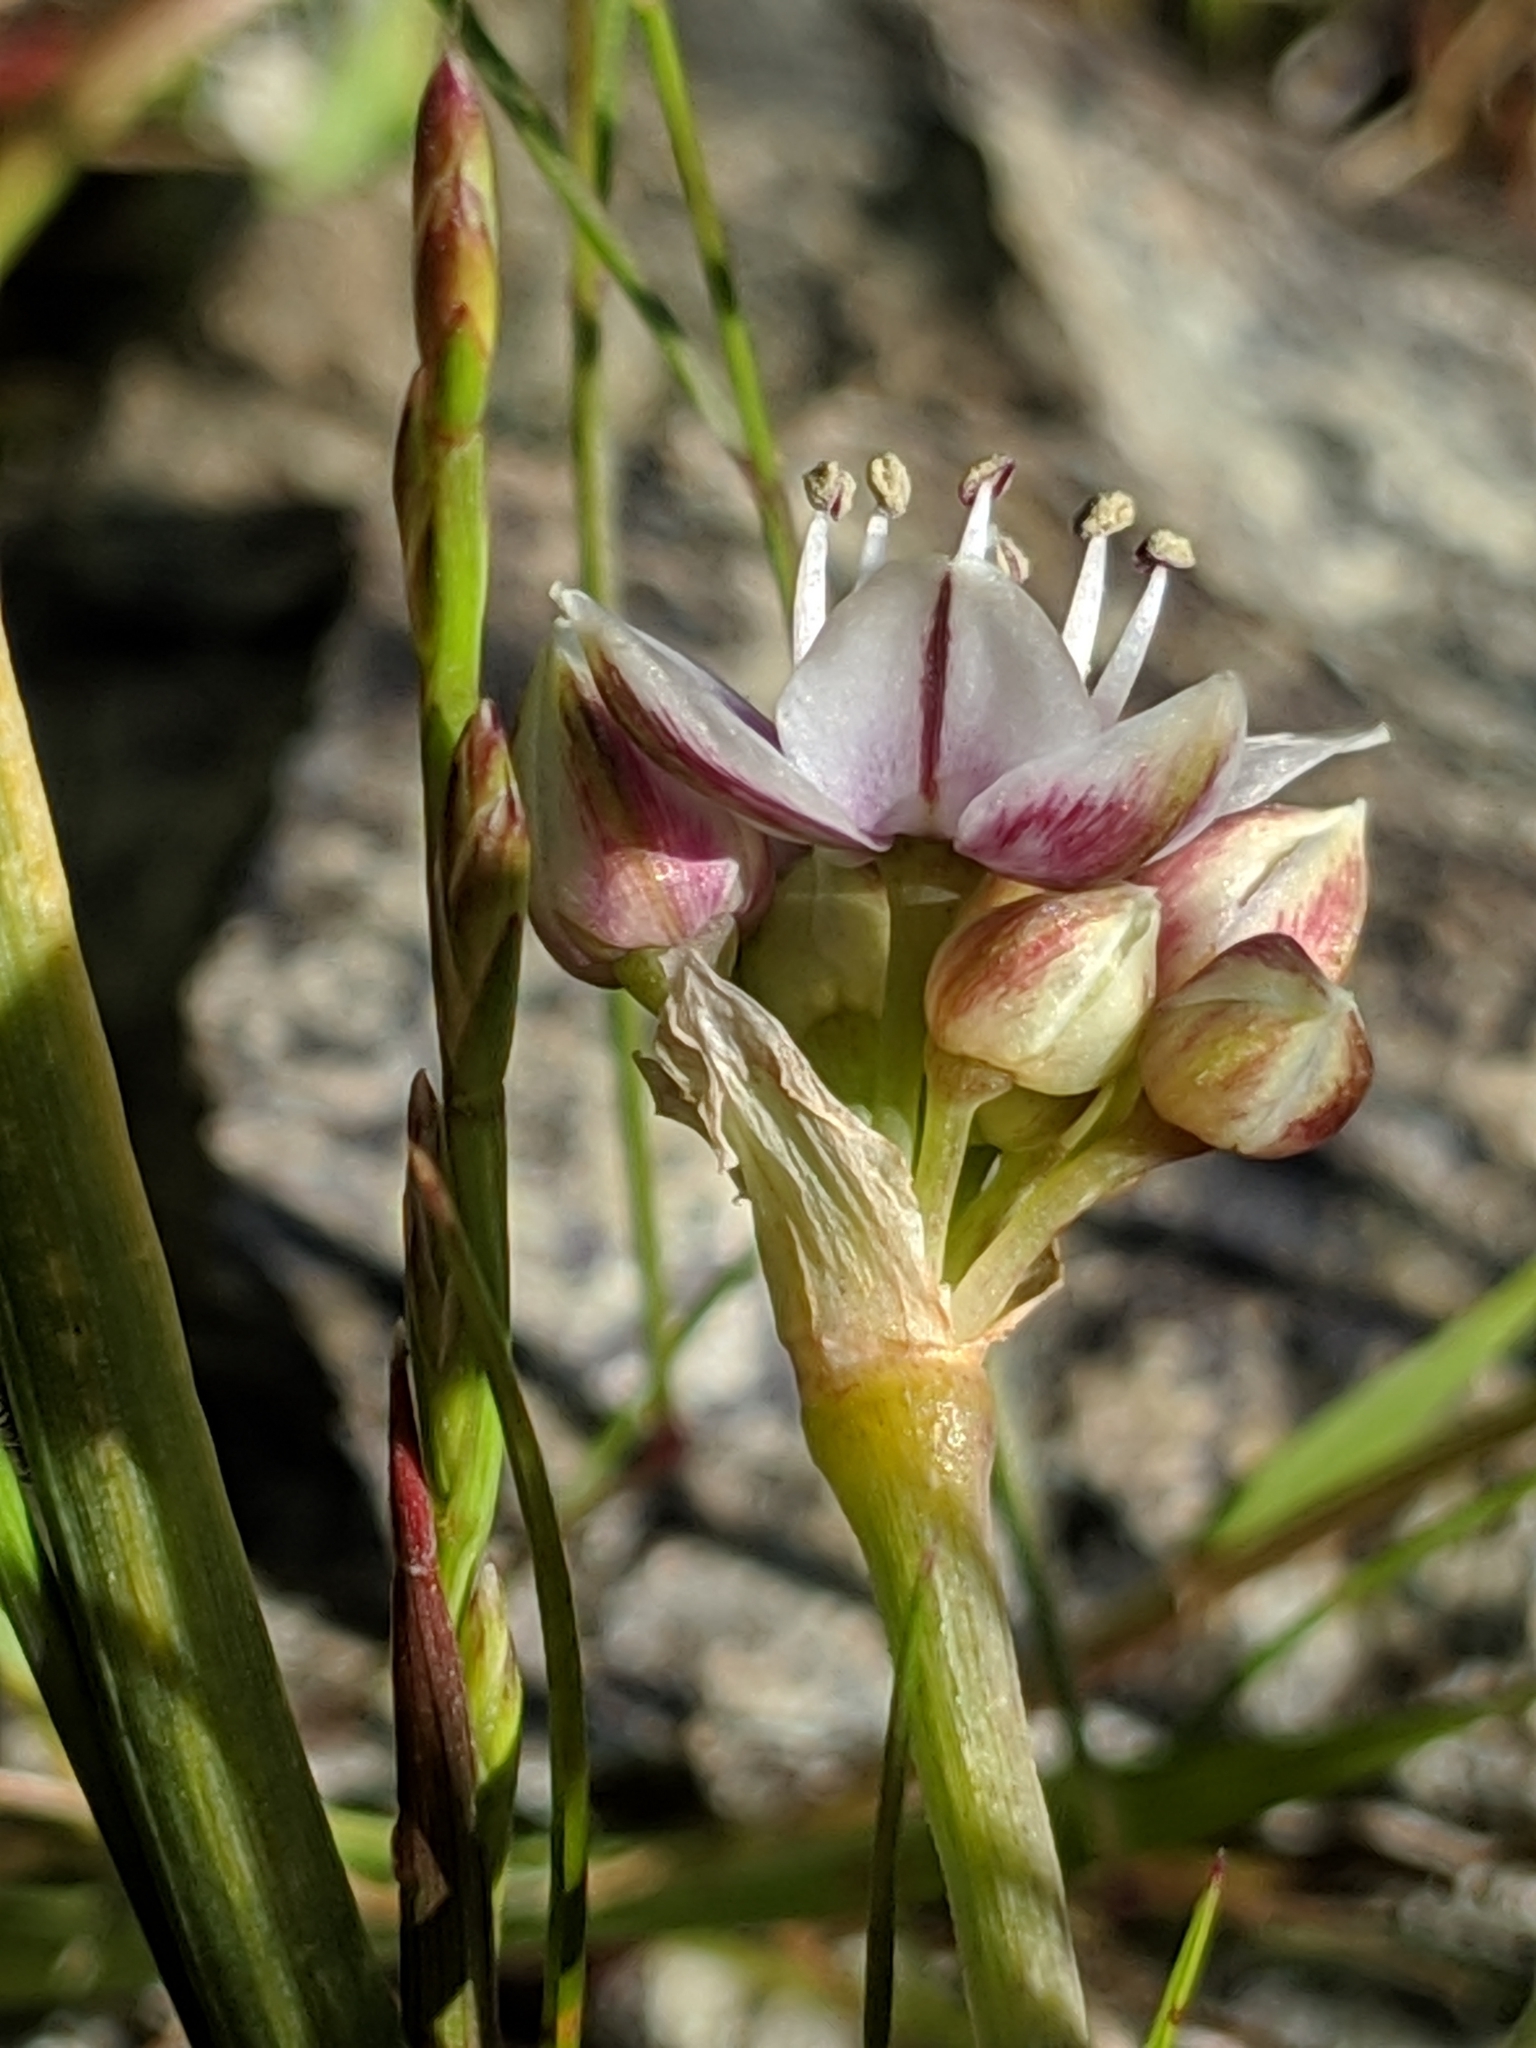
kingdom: Plantae
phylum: Tracheophyta
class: Liliopsida
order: Asparagales
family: Amaryllidaceae
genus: Allium
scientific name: Allium haematochiton
